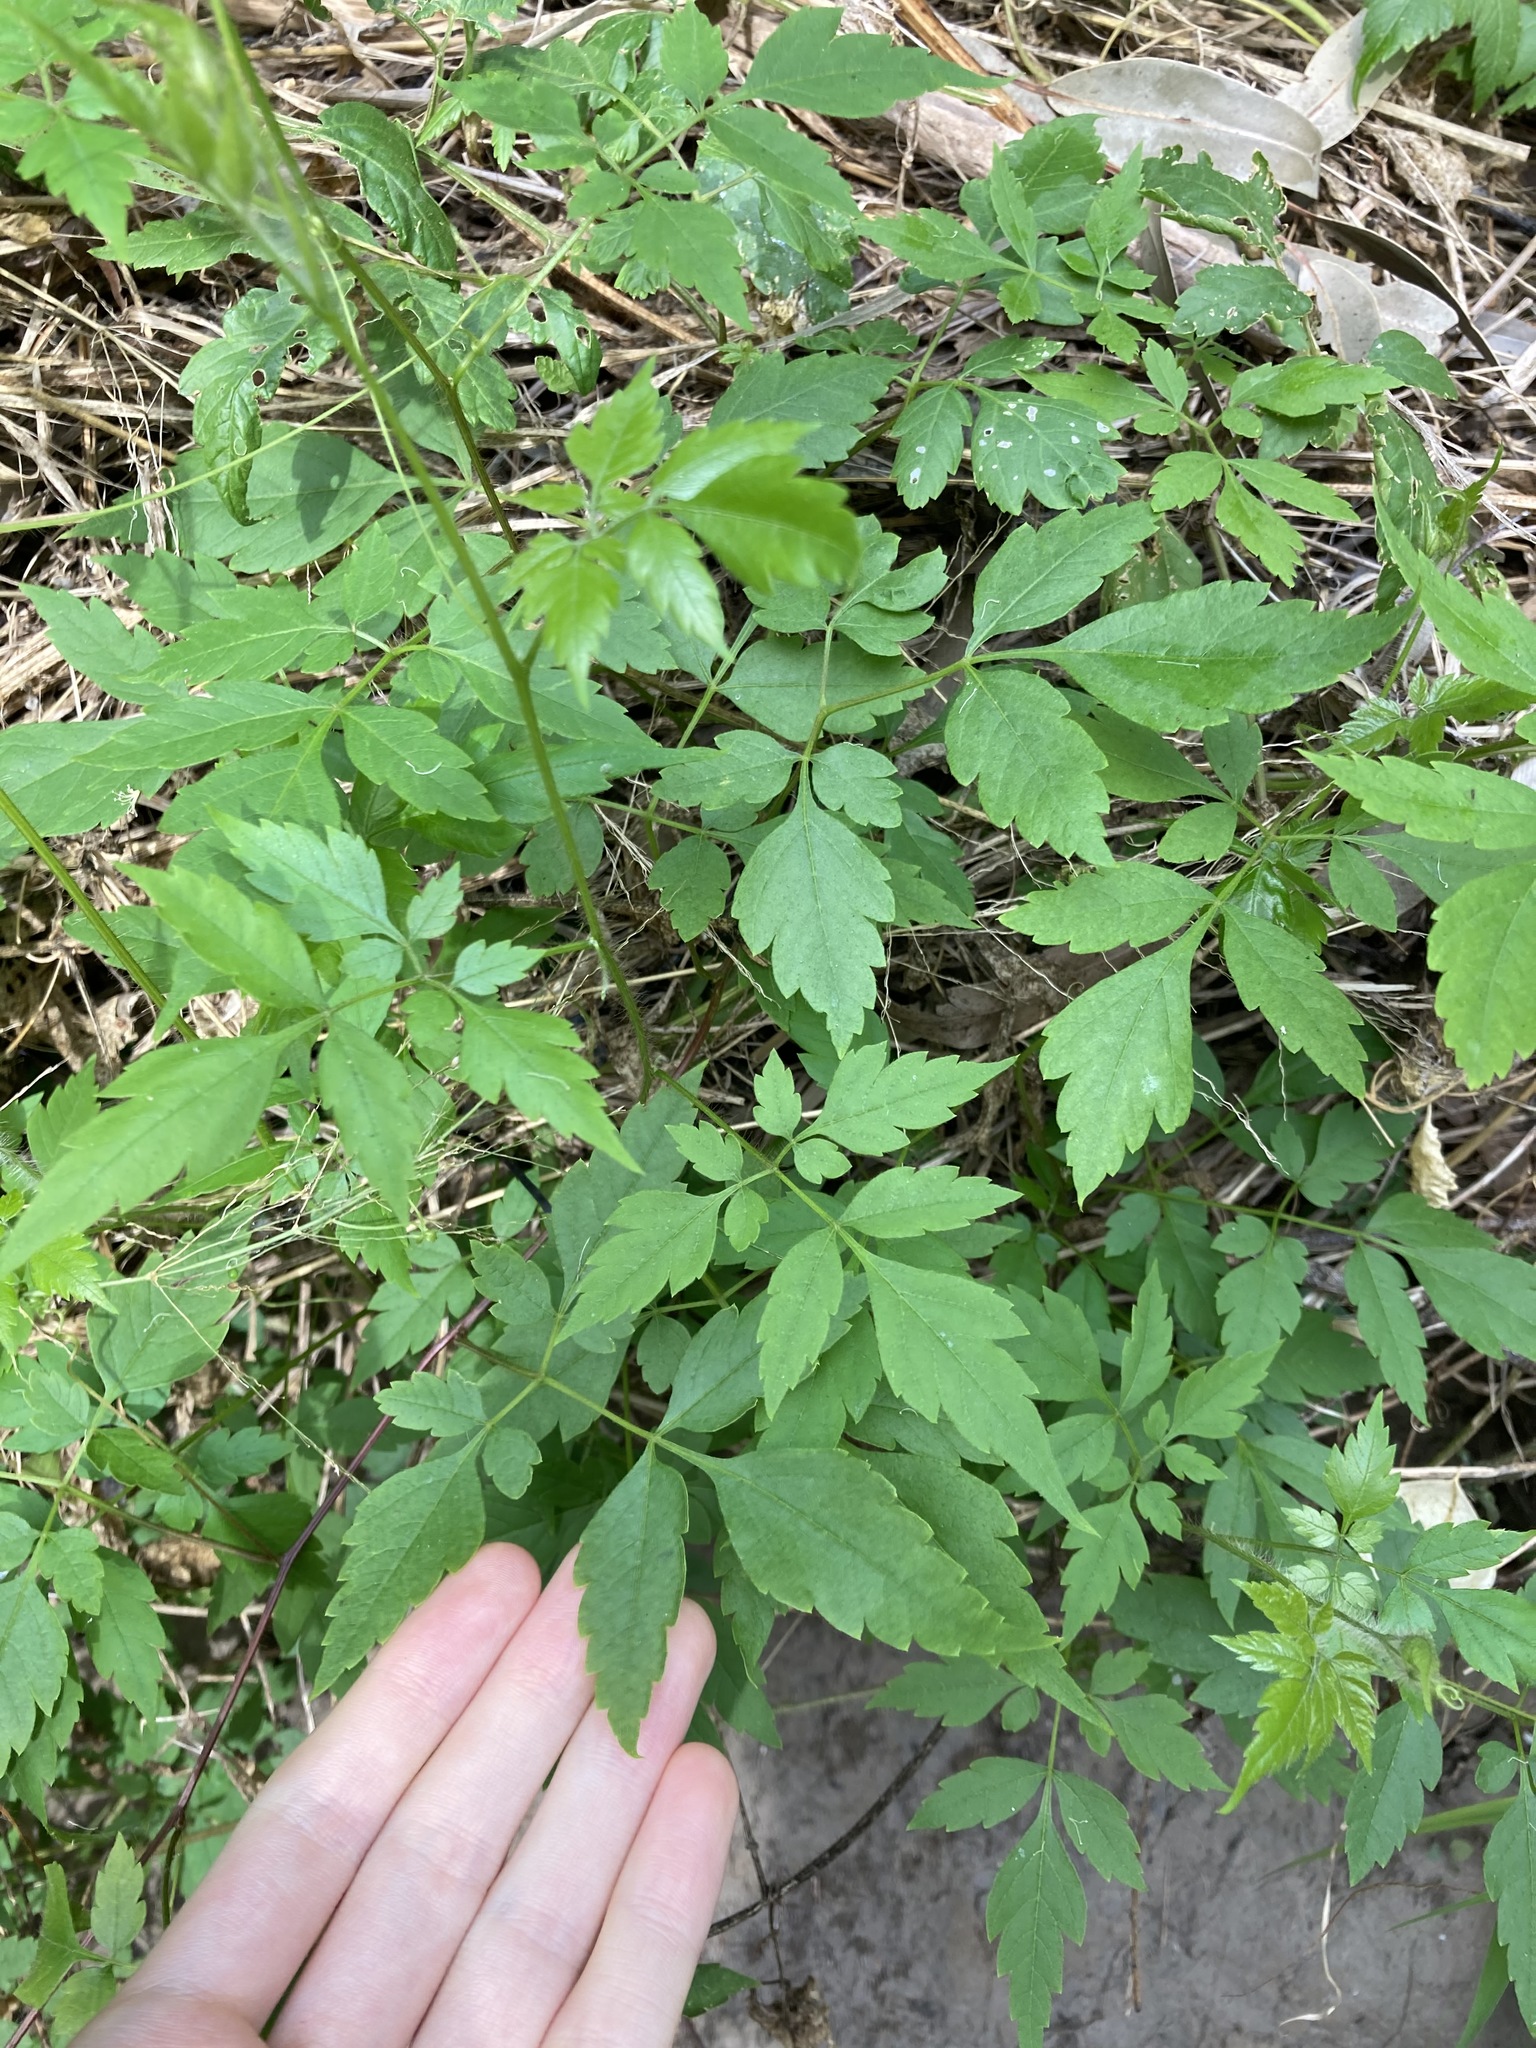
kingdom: Plantae
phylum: Tracheophyta
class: Magnoliopsida
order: Sapindales
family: Sapindaceae
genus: Cardiospermum
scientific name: Cardiospermum grandiflorum
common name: Balloon vine
